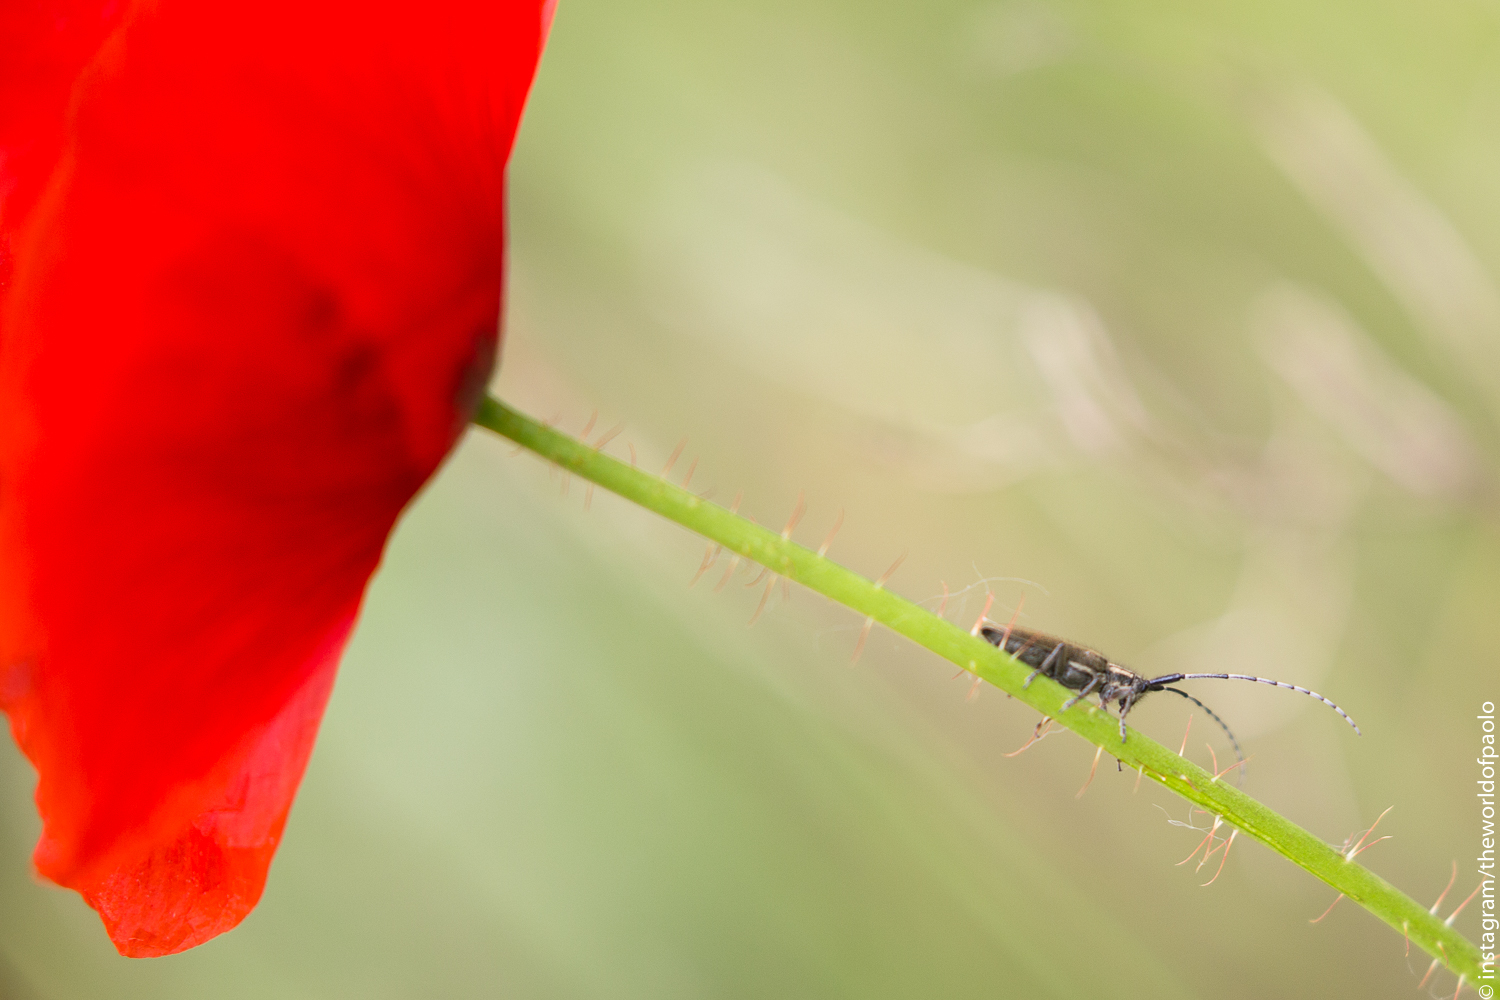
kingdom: Animalia
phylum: Arthropoda
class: Insecta
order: Coleoptera
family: Cerambycidae
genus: Agapanthia
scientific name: Agapanthia cardui
